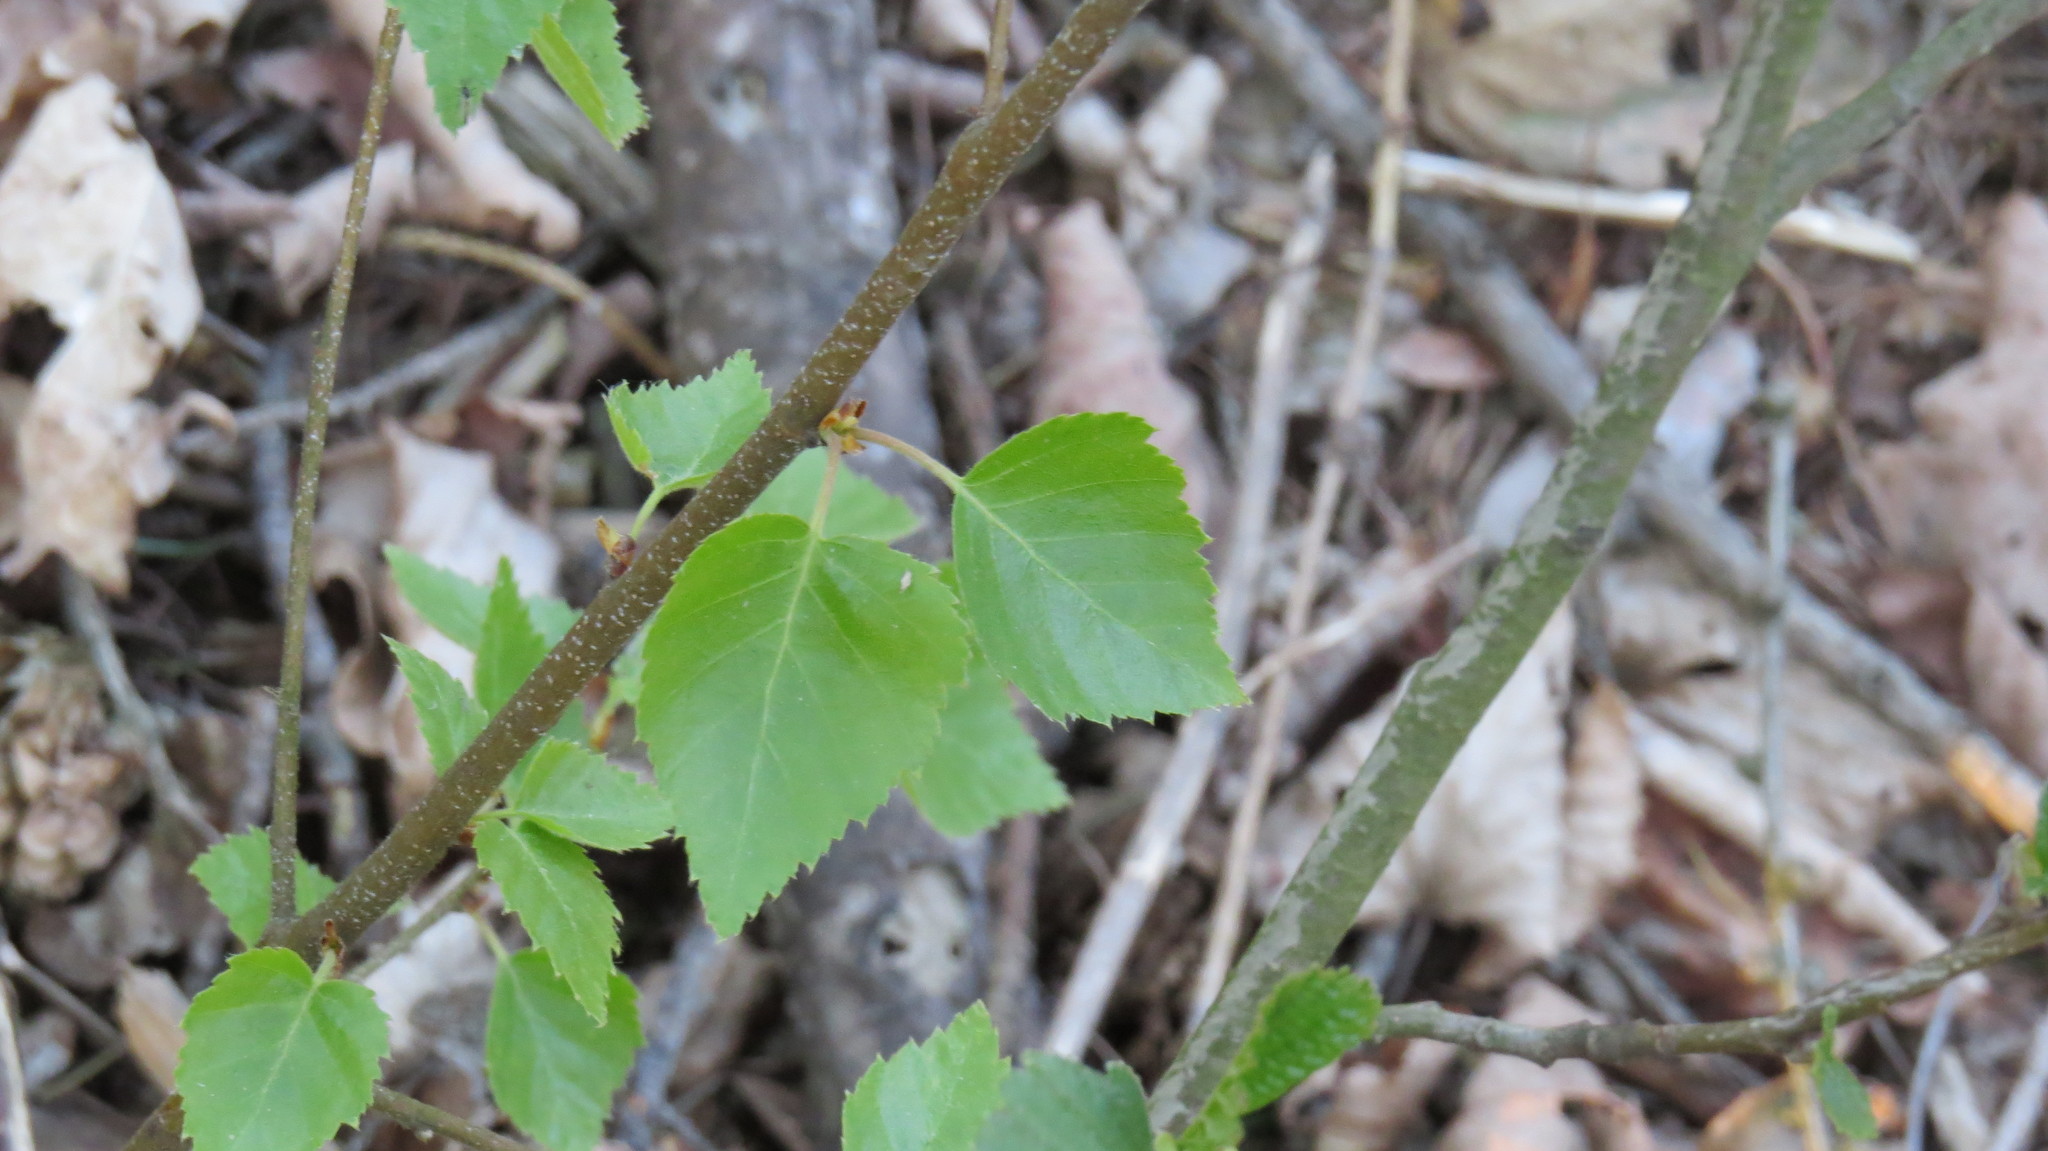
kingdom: Plantae
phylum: Tracheophyta
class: Magnoliopsida
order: Fagales
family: Betulaceae
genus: Betula
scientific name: Betula pendula
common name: Silver birch
